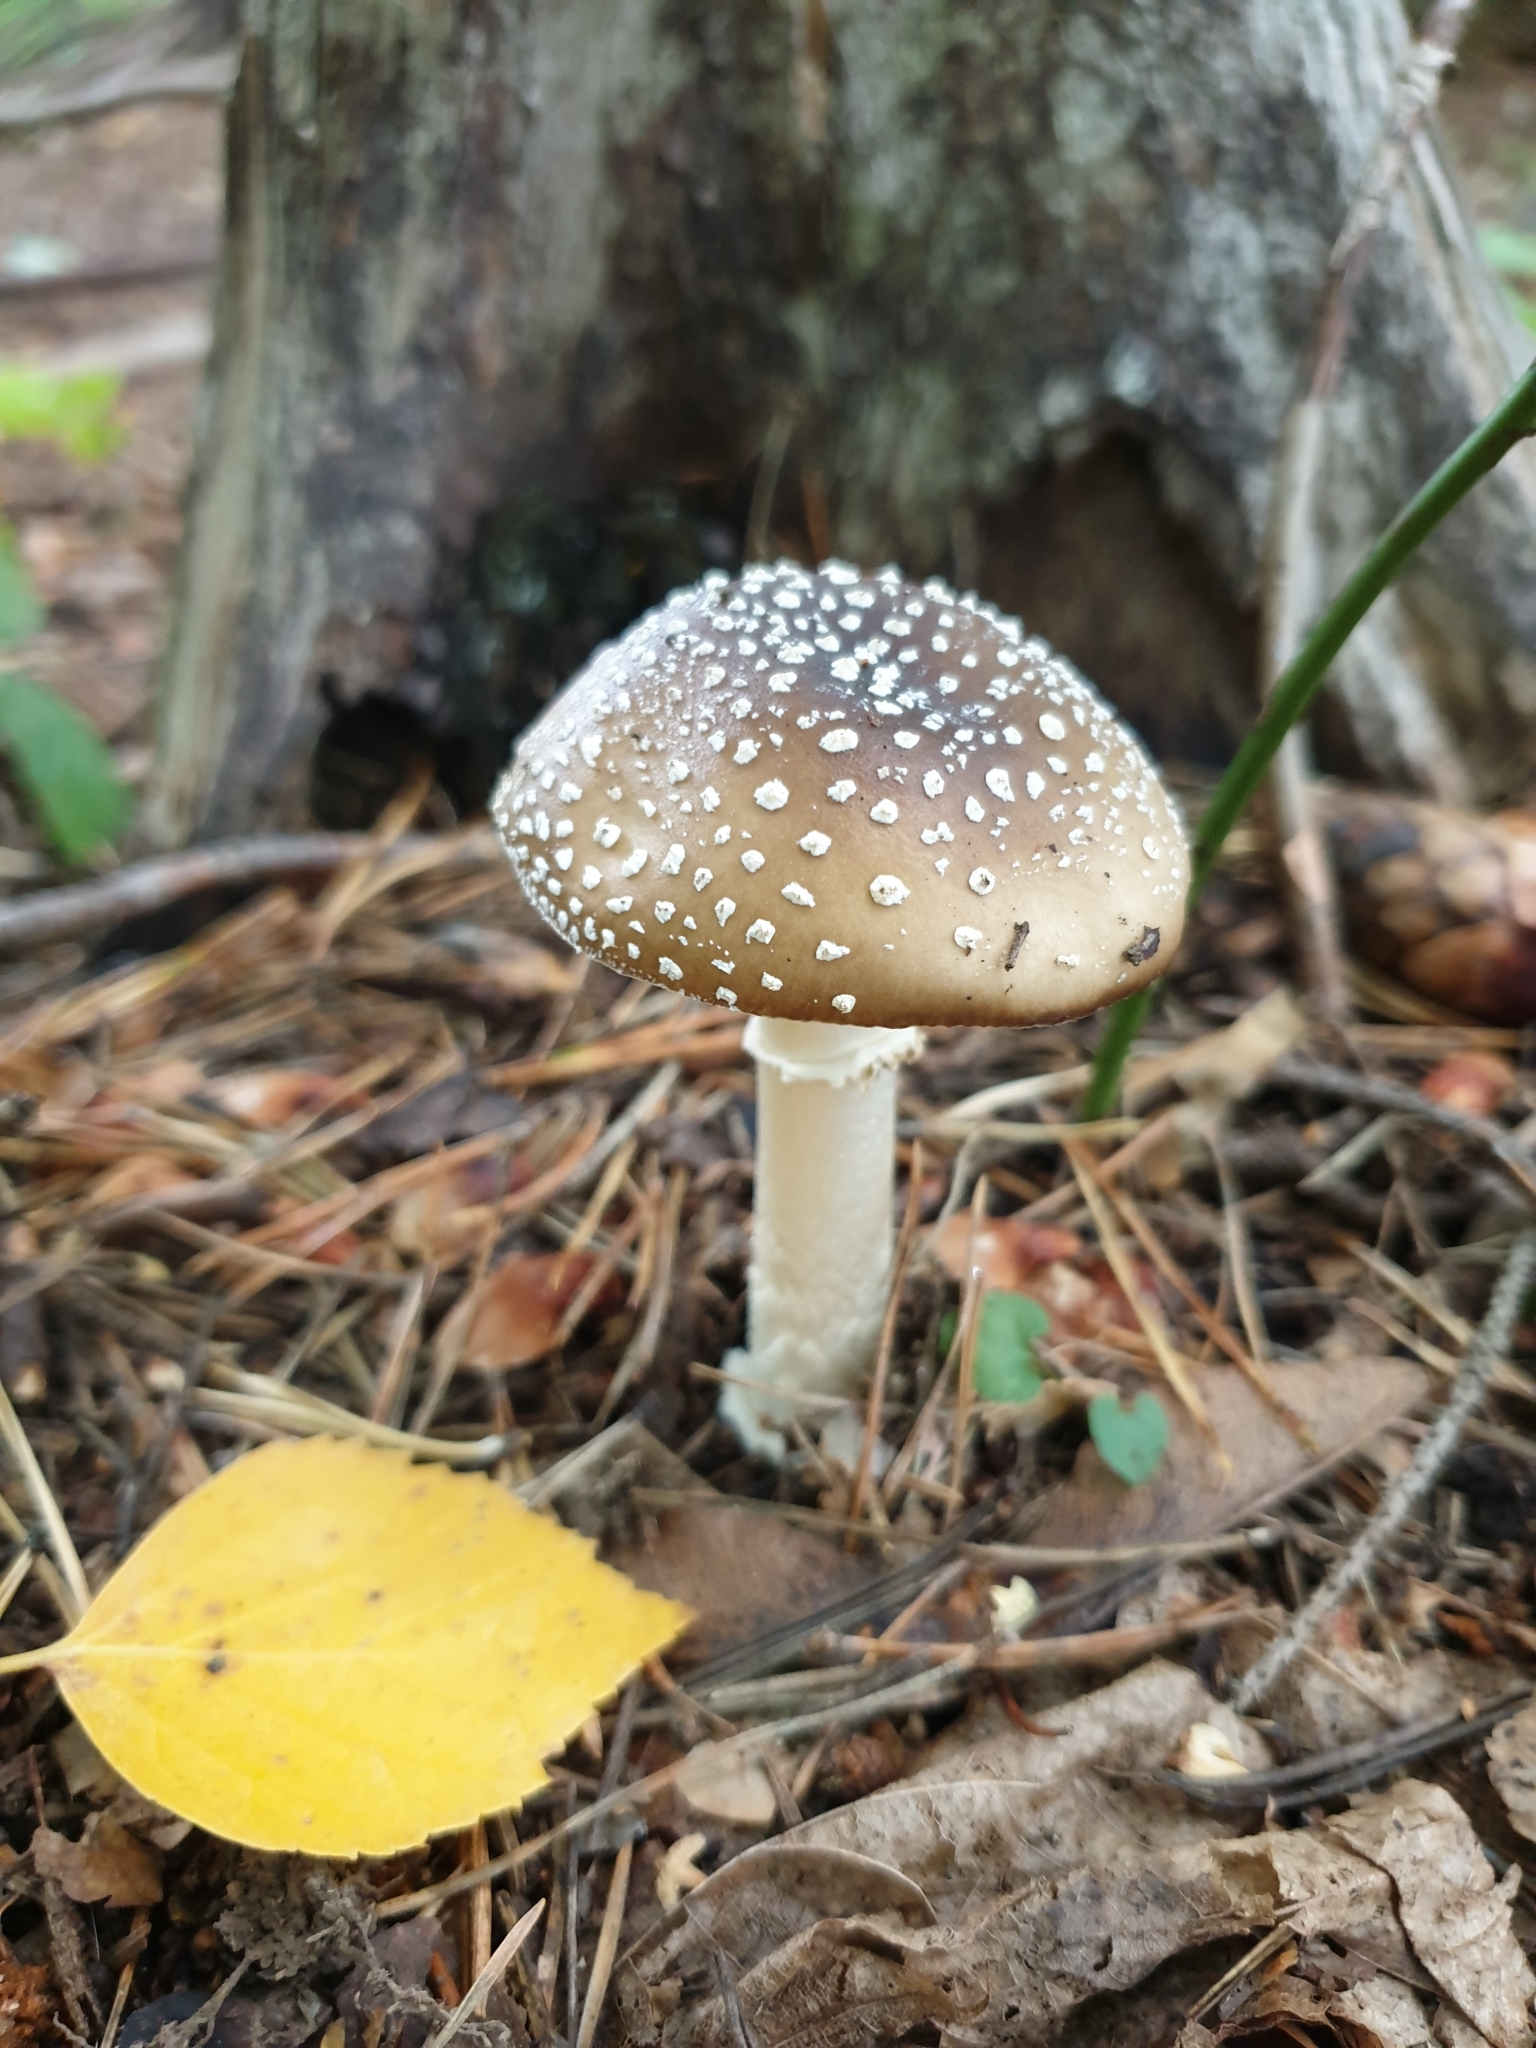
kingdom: Fungi
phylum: Basidiomycota
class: Agaricomycetes
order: Agaricales
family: Amanitaceae
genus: Amanita
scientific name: Amanita pantherina
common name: Panthercap
